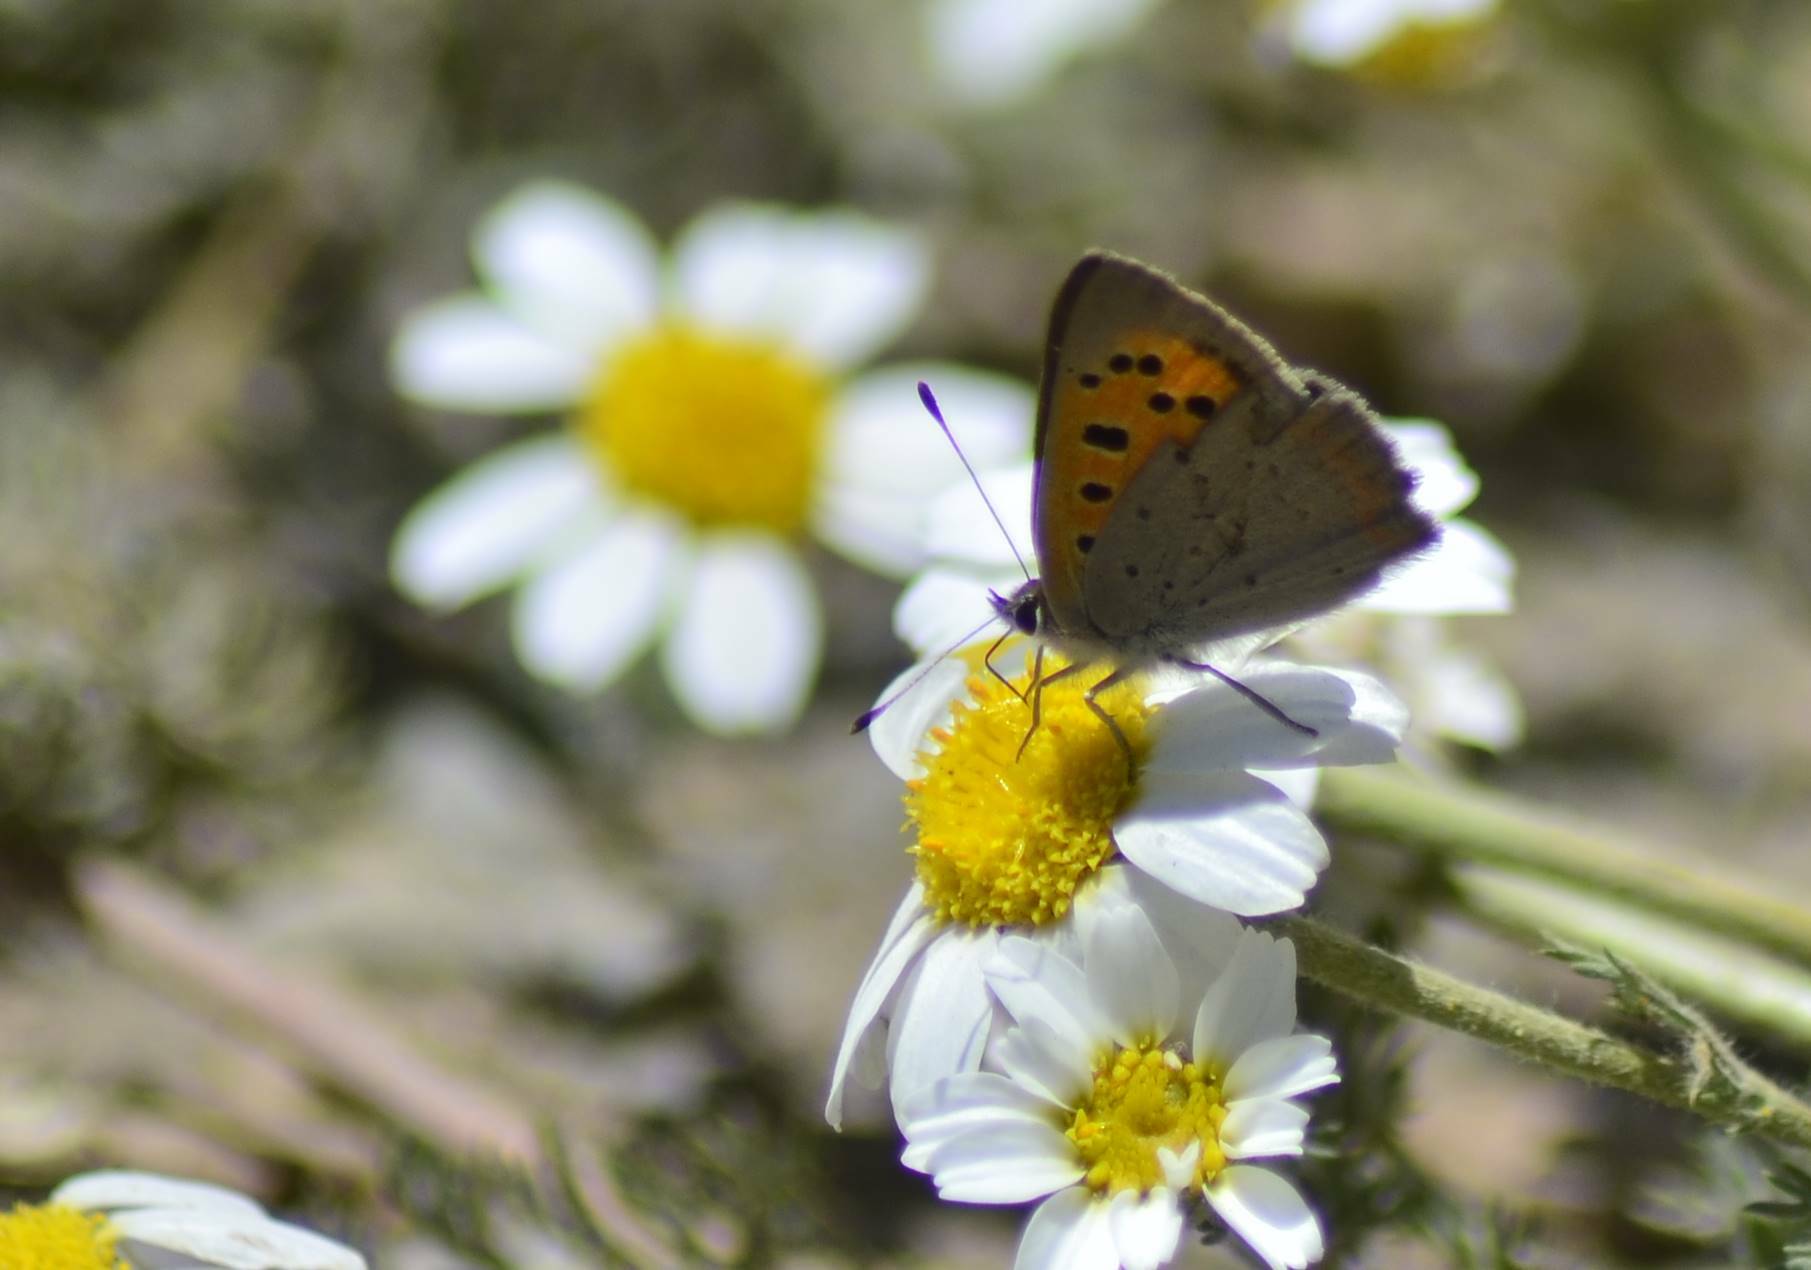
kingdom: Animalia
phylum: Arthropoda
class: Insecta
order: Lepidoptera
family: Lycaenidae
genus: Lycaena
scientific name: Lycaena phlaeas
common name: Small copper
